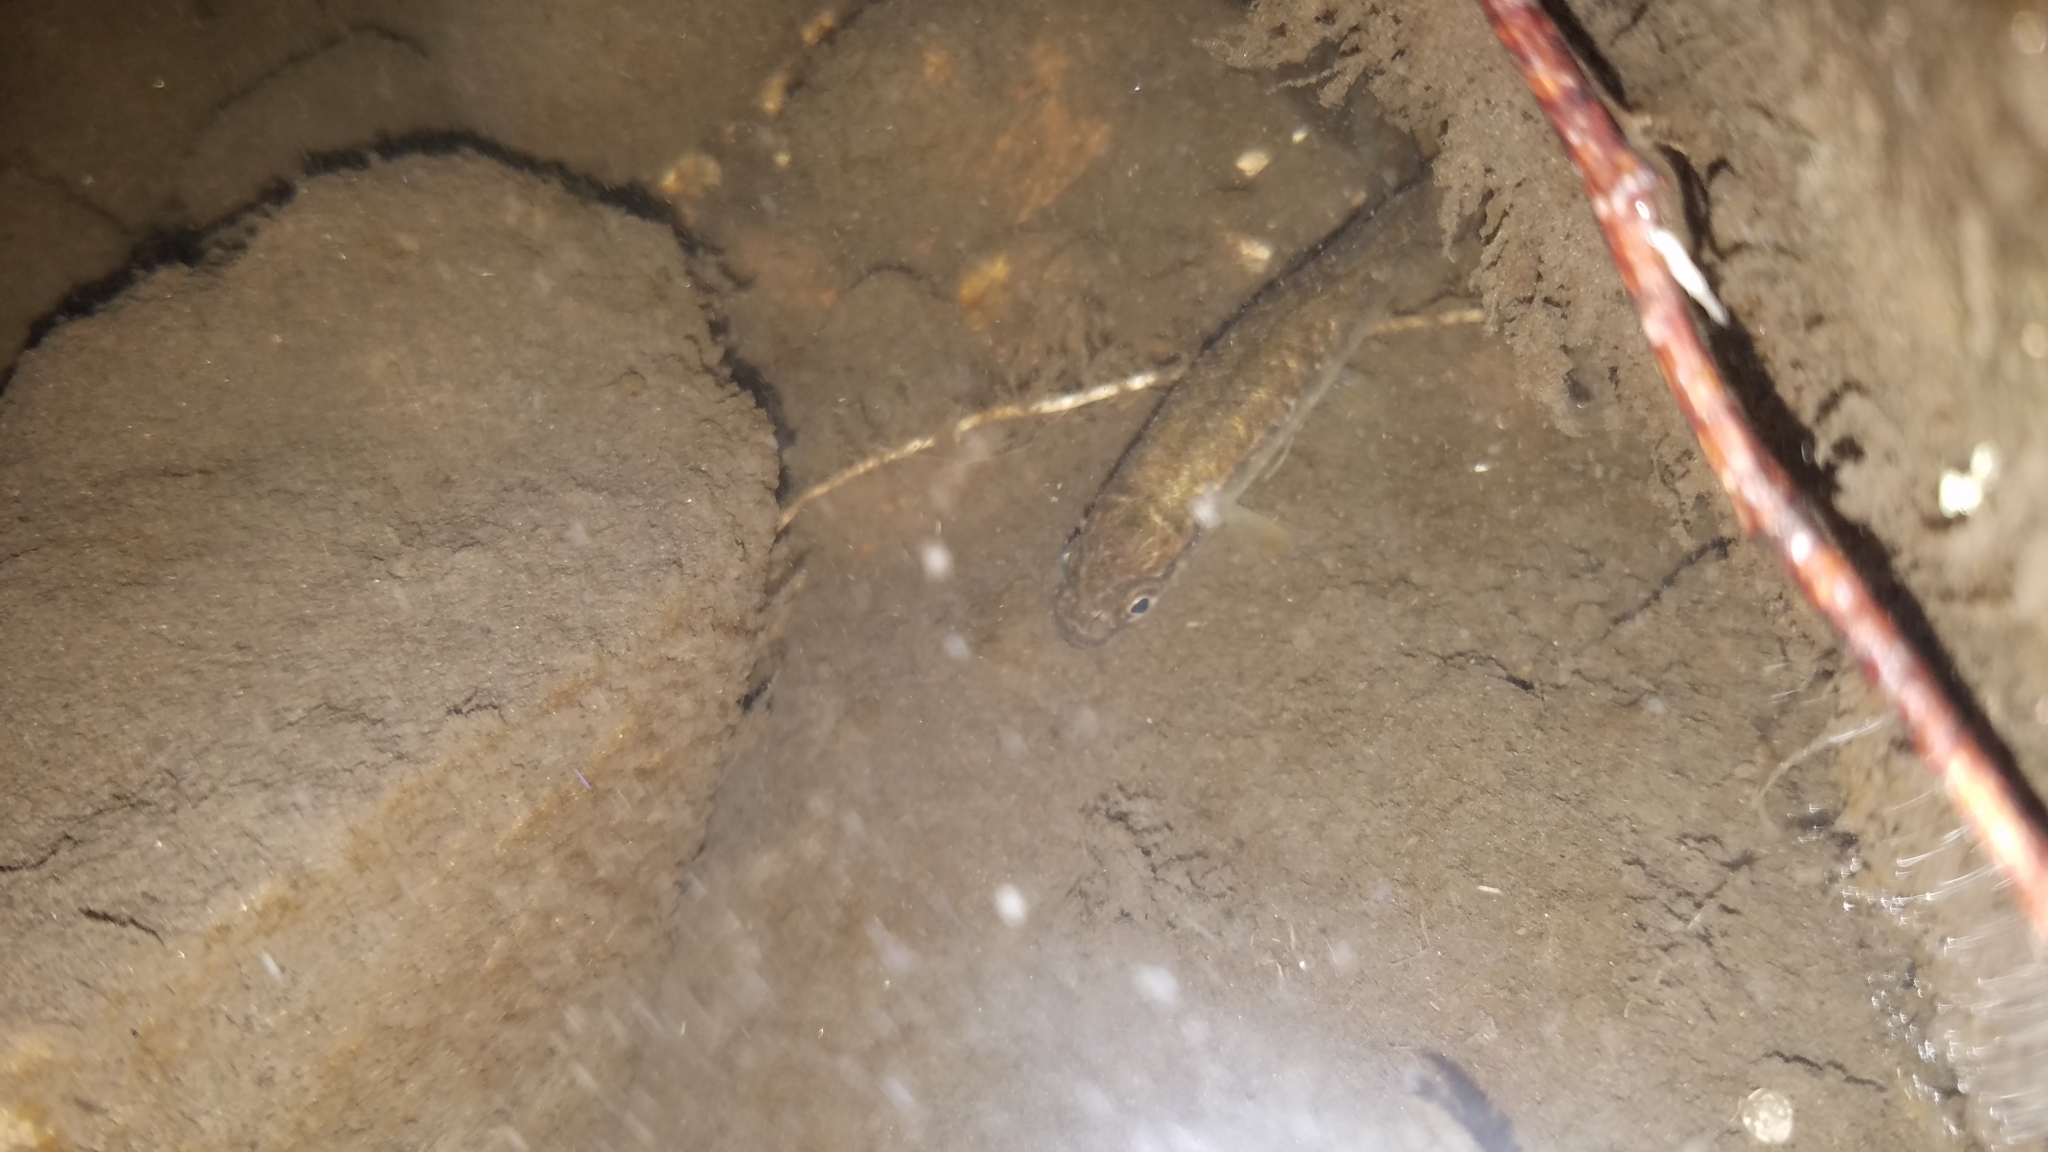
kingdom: Animalia
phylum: Chordata
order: Esociformes
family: Umbridae
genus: Umbra
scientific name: Umbra limi
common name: Central mudminnow
